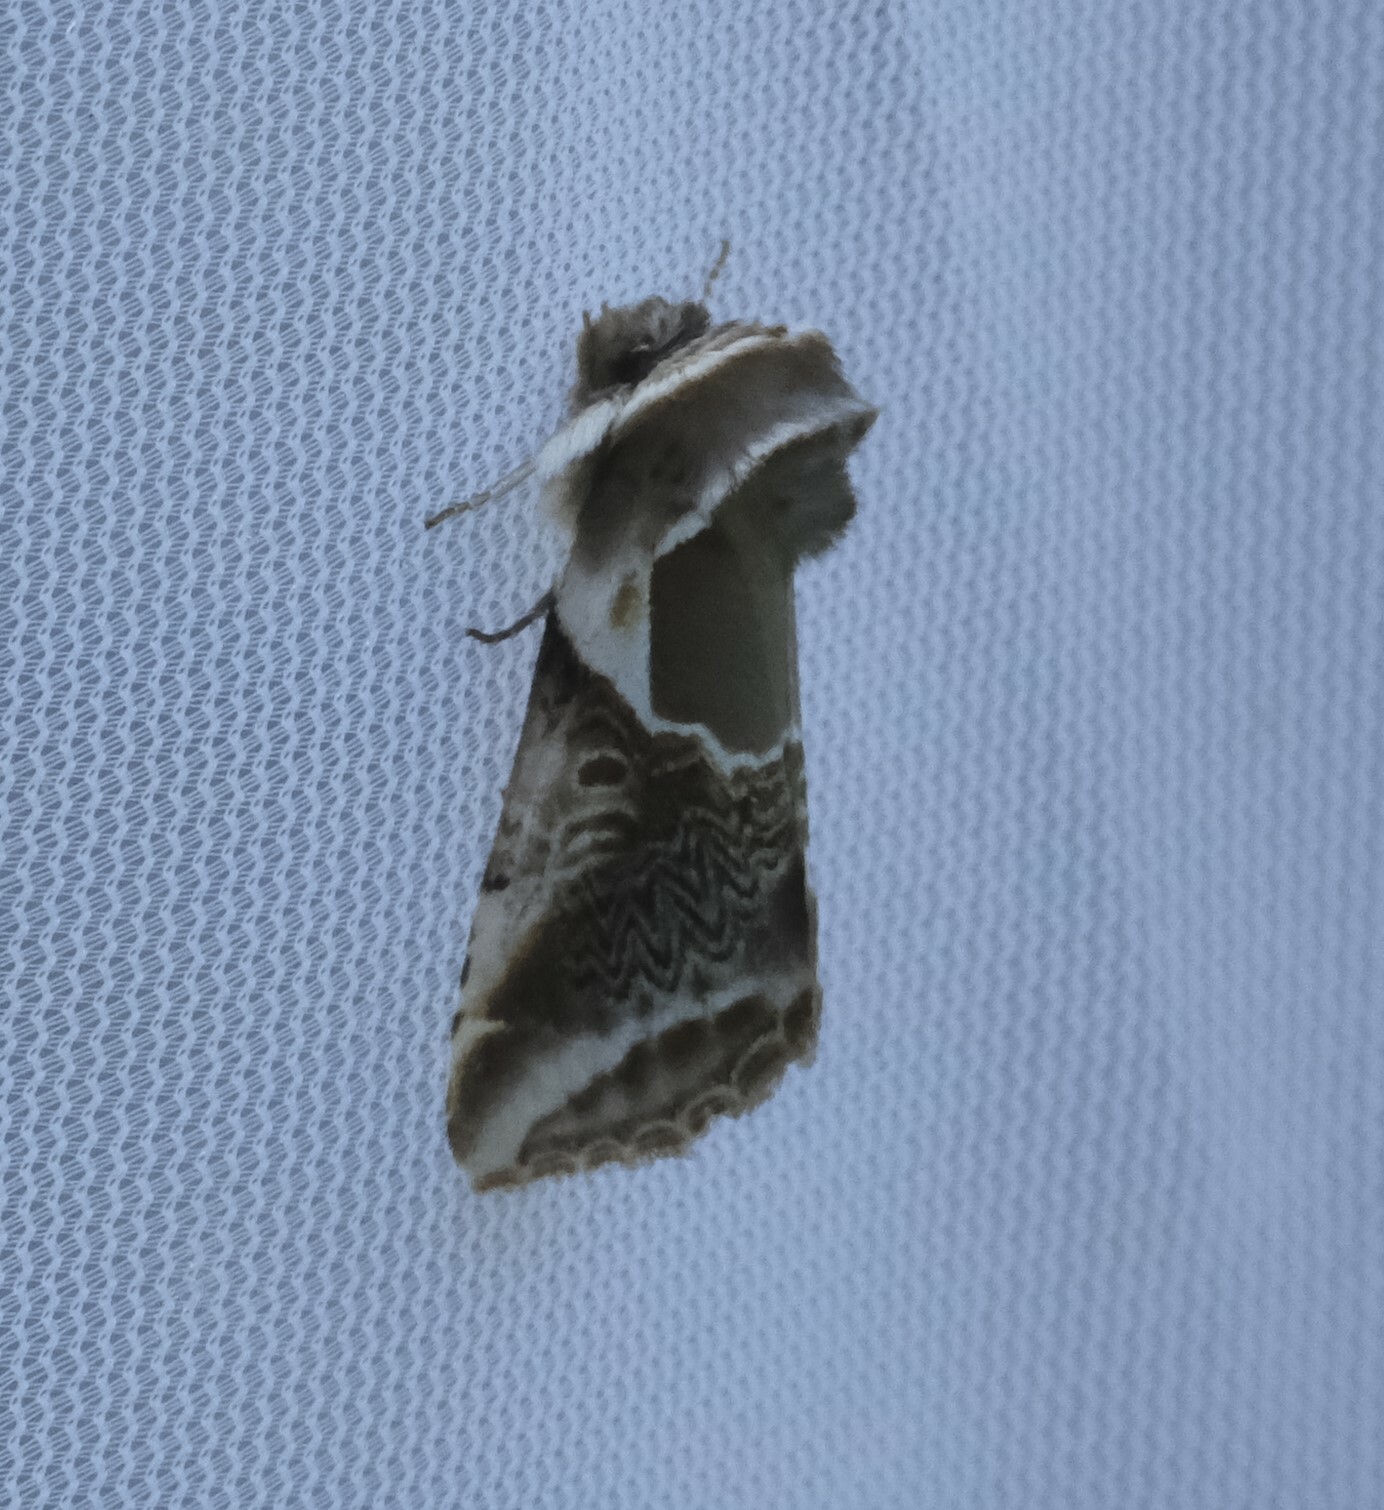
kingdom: Animalia
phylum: Arthropoda
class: Insecta
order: Lepidoptera
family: Drepanidae
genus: Habrosyne
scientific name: Habrosyne scripta
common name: Lettered habrosyne moth
